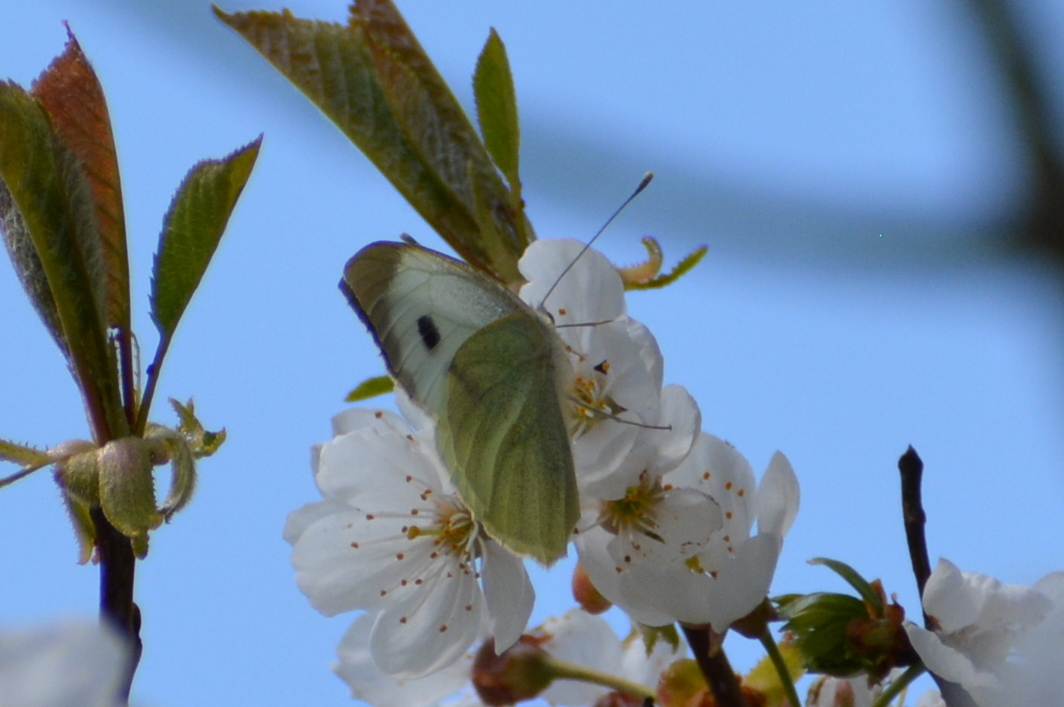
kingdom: Animalia
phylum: Arthropoda
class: Insecta
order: Lepidoptera
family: Pieridae
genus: Pieris
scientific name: Pieris brassicae
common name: Large white
